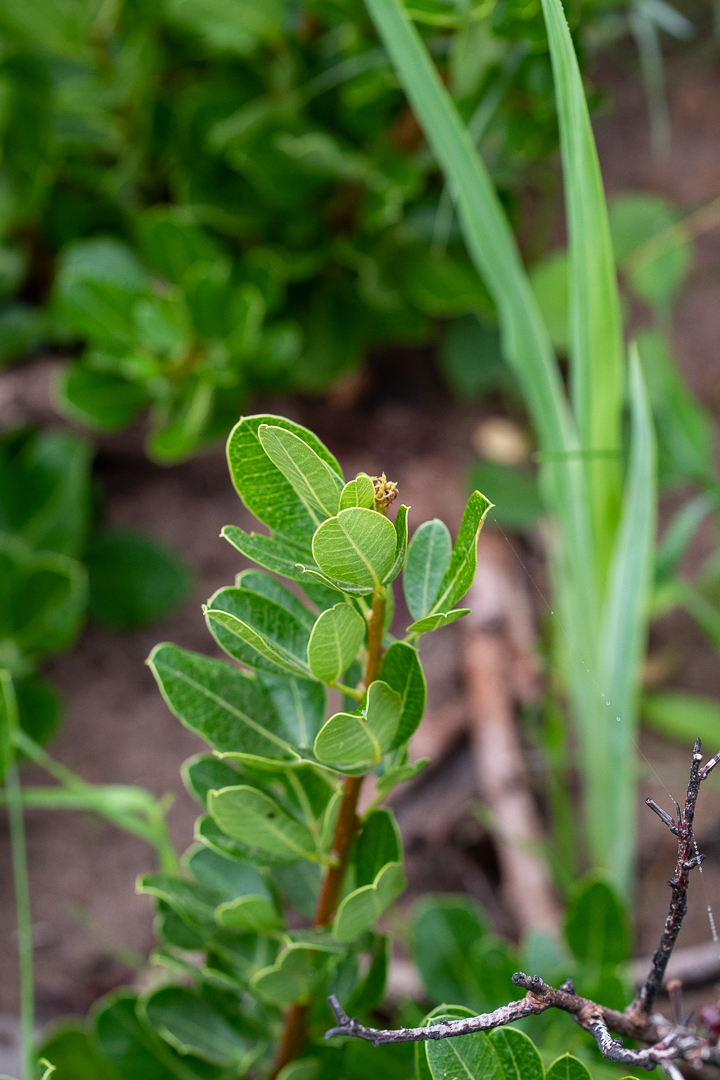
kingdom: Plantae
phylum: Tracheophyta
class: Magnoliopsida
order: Sapindales
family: Anacardiaceae
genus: Searsia
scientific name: Searsia laevigata
